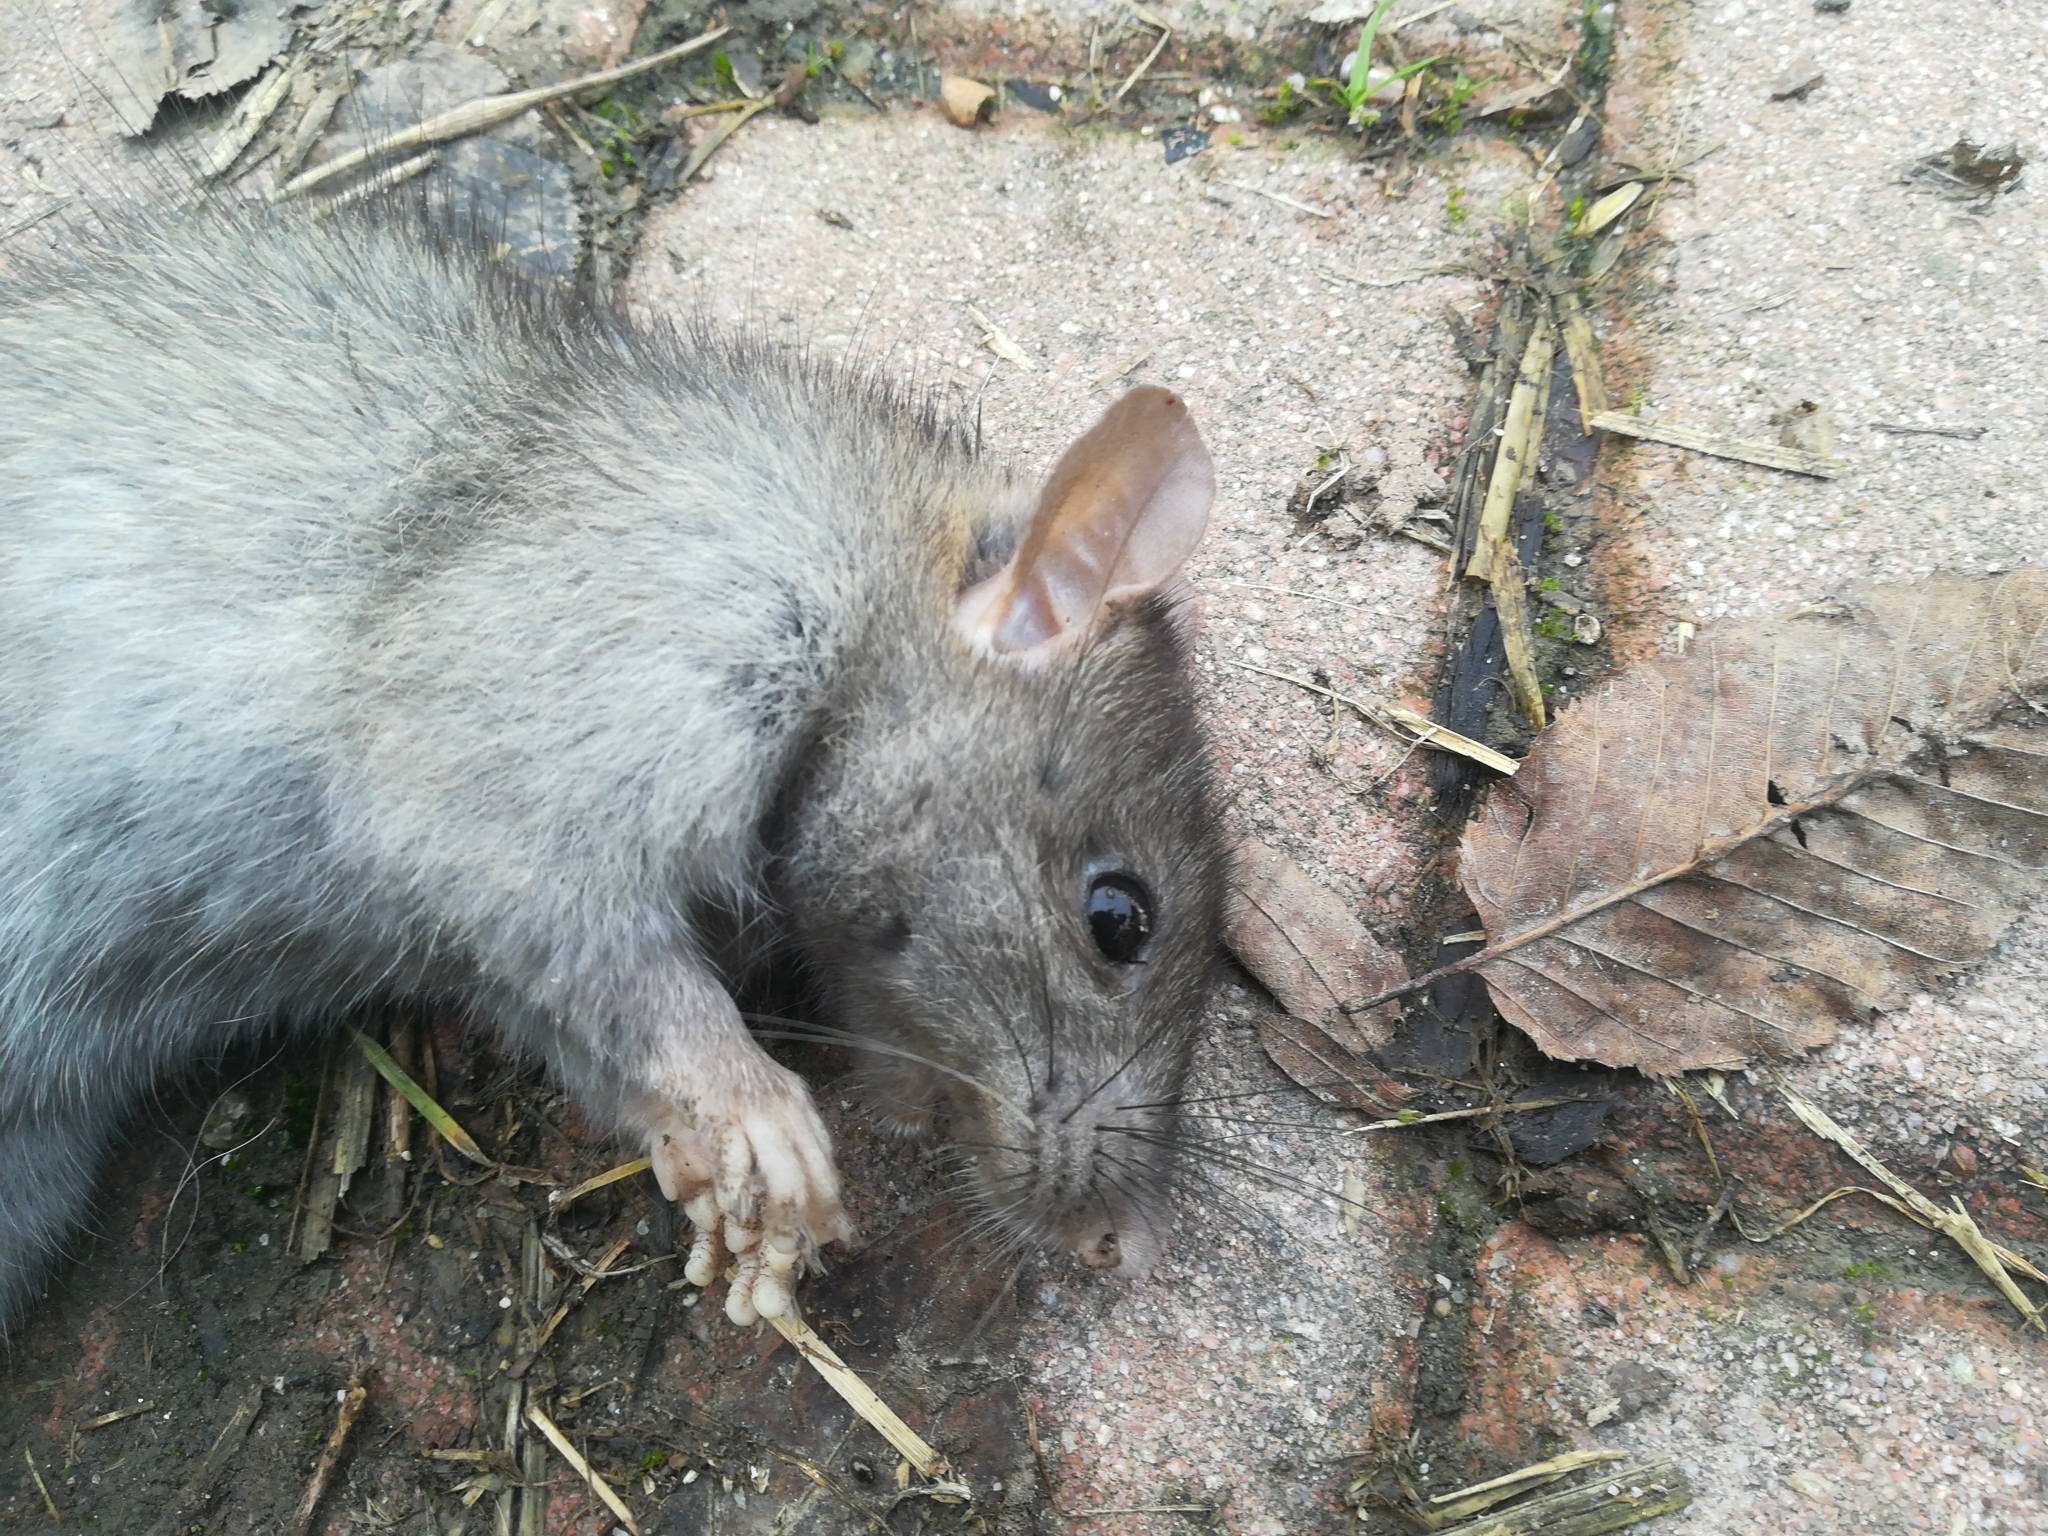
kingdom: Animalia
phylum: Chordata
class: Mammalia
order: Rodentia
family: Muridae
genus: Rattus
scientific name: Rattus rattus
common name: Black rat
